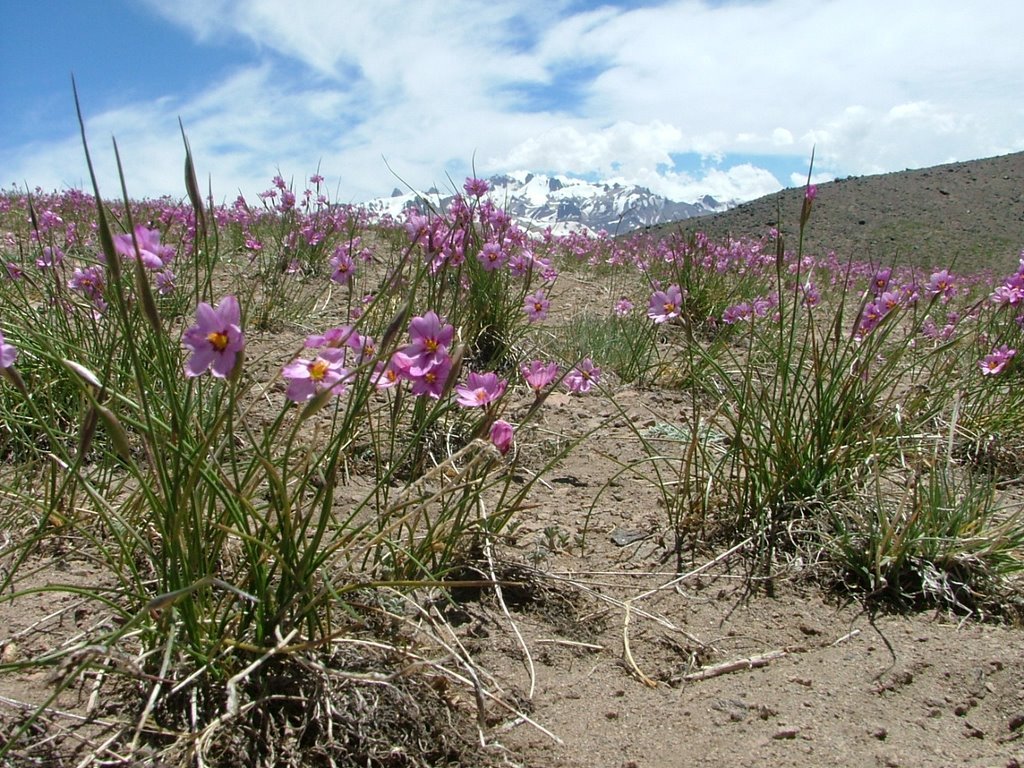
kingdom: Plantae
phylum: Tracheophyta
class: Liliopsida
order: Asparagales
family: Iridaceae
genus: Olsynium
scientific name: Olsynium junceum
